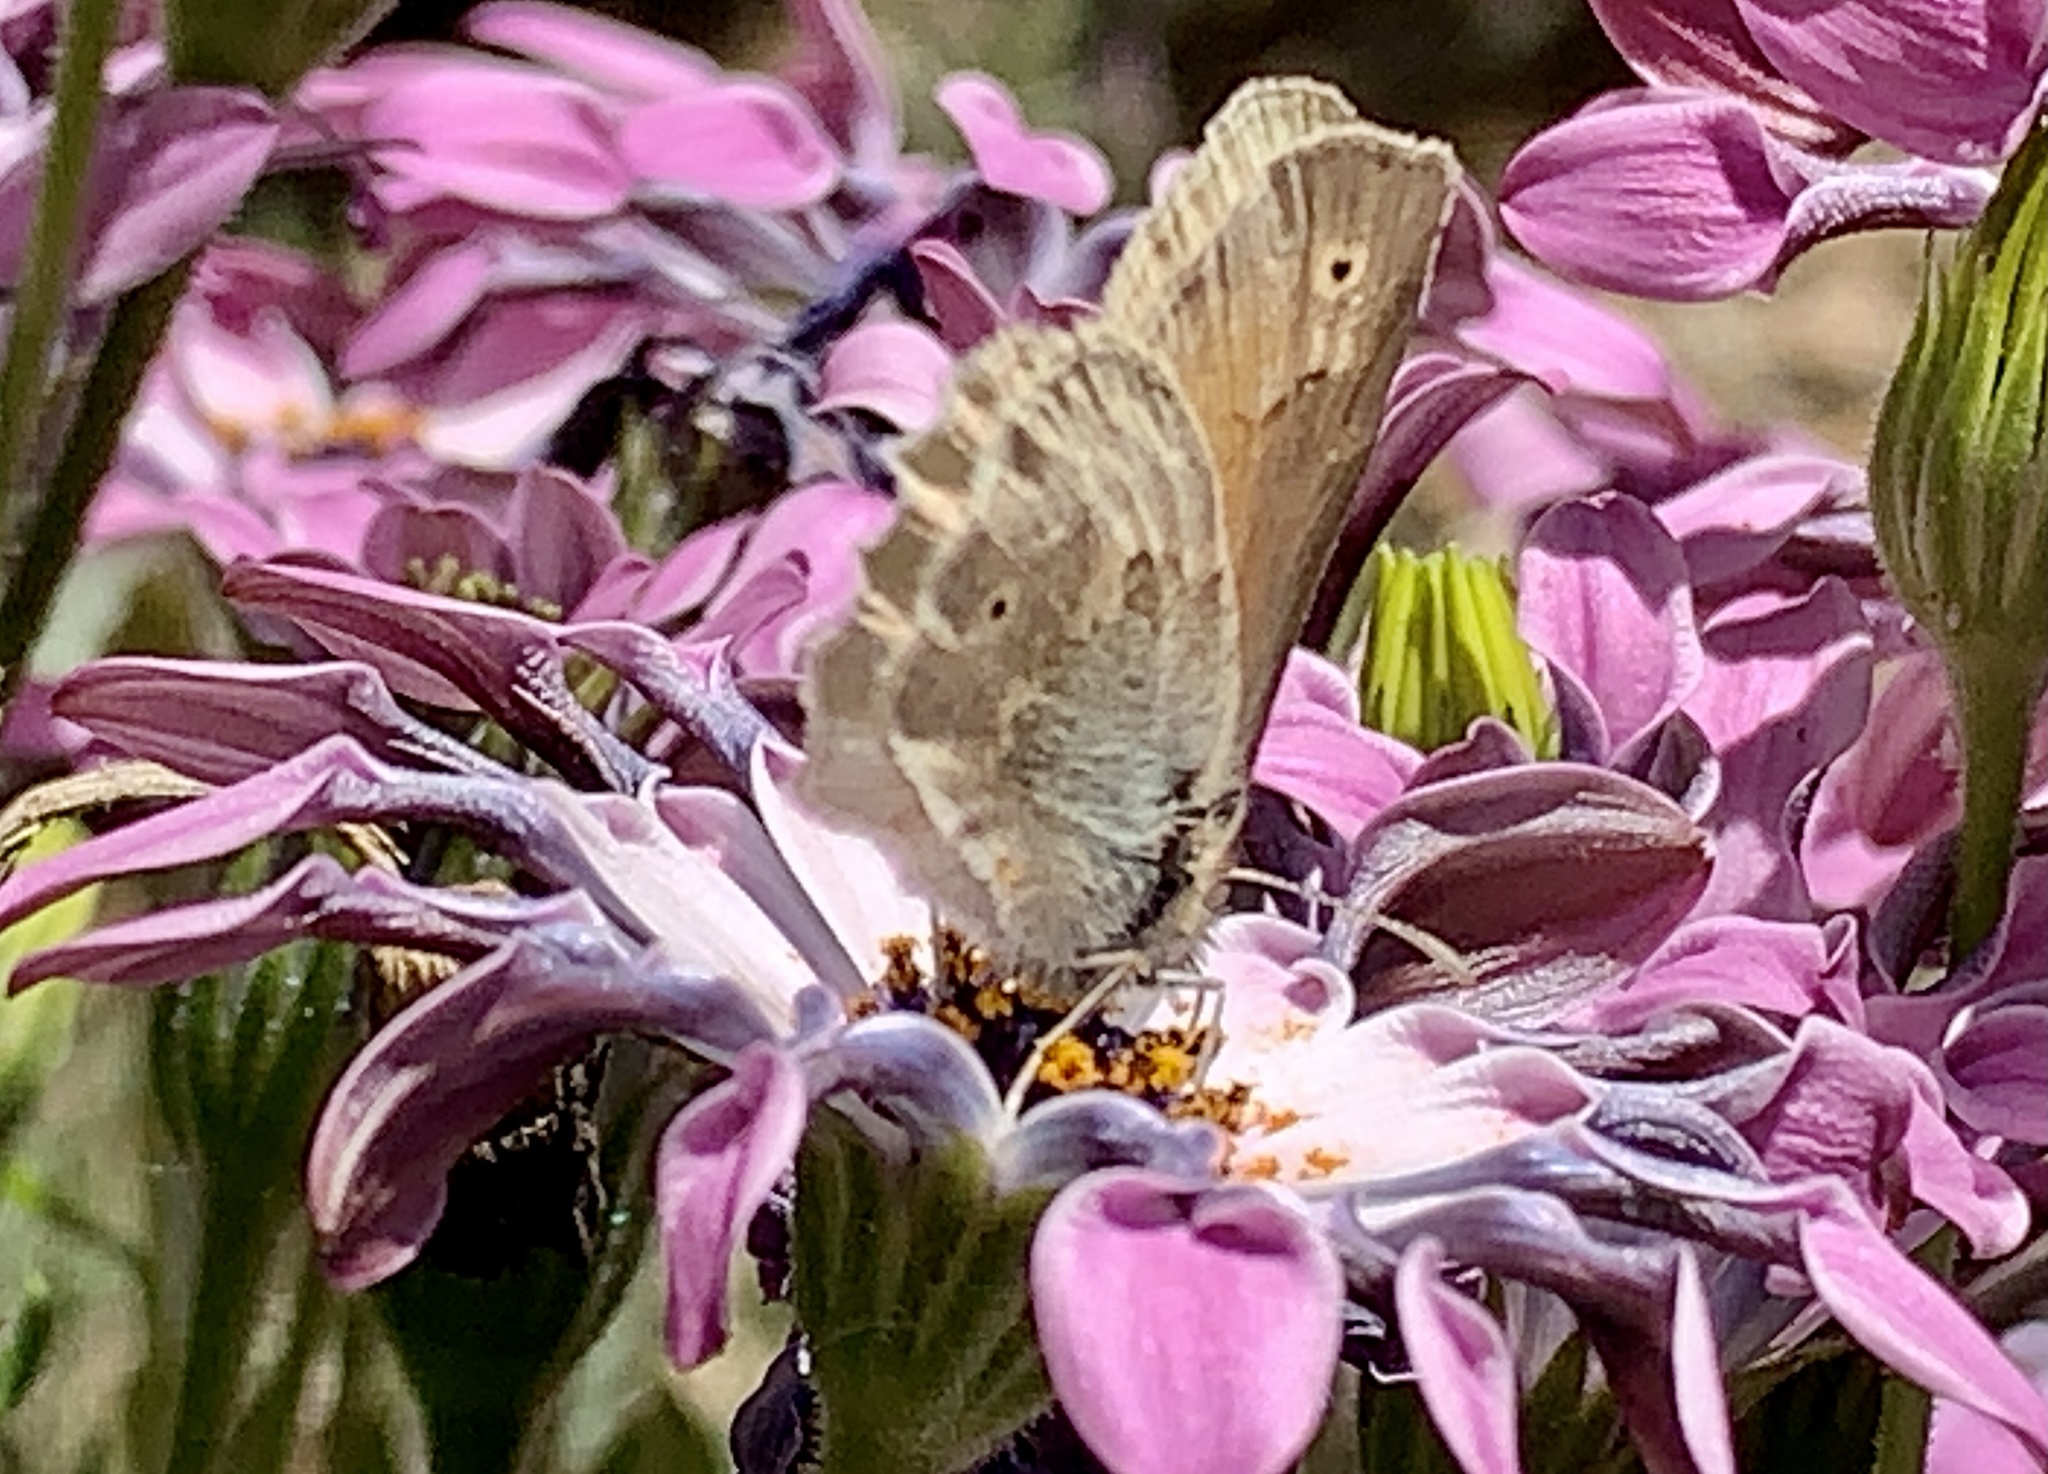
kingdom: Animalia
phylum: Arthropoda
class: Insecta
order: Lepidoptera
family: Nymphalidae
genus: Coenonympha
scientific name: Coenonympha california
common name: Common ringlet
